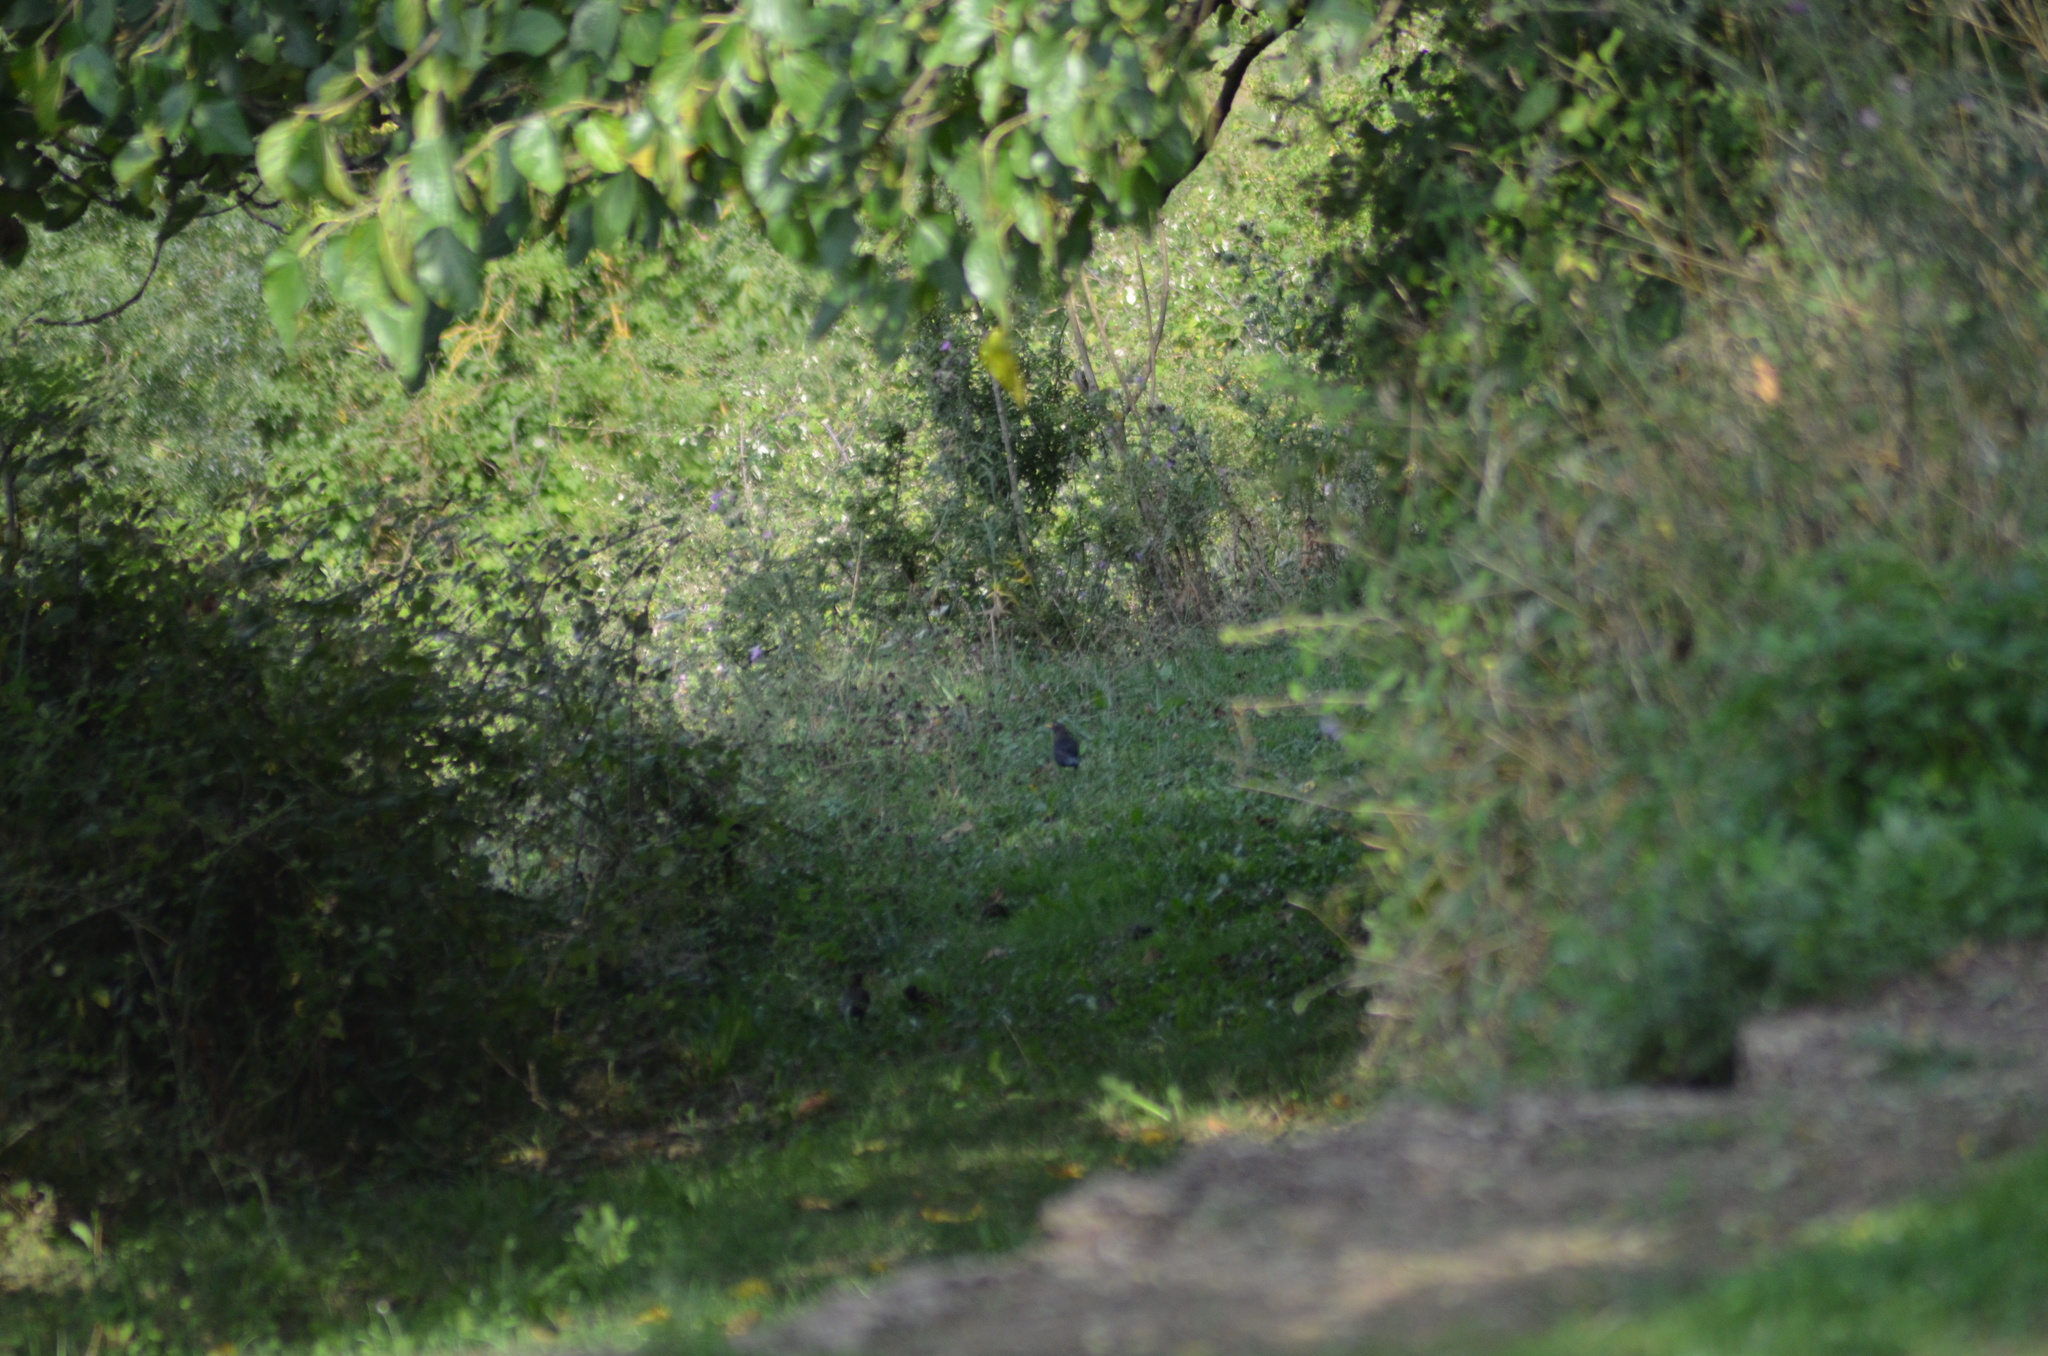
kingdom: Animalia
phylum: Chordata
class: Aves
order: Passeriformes
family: Turdidae
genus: Turdus
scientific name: Turdus merula
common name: Common blackbird
